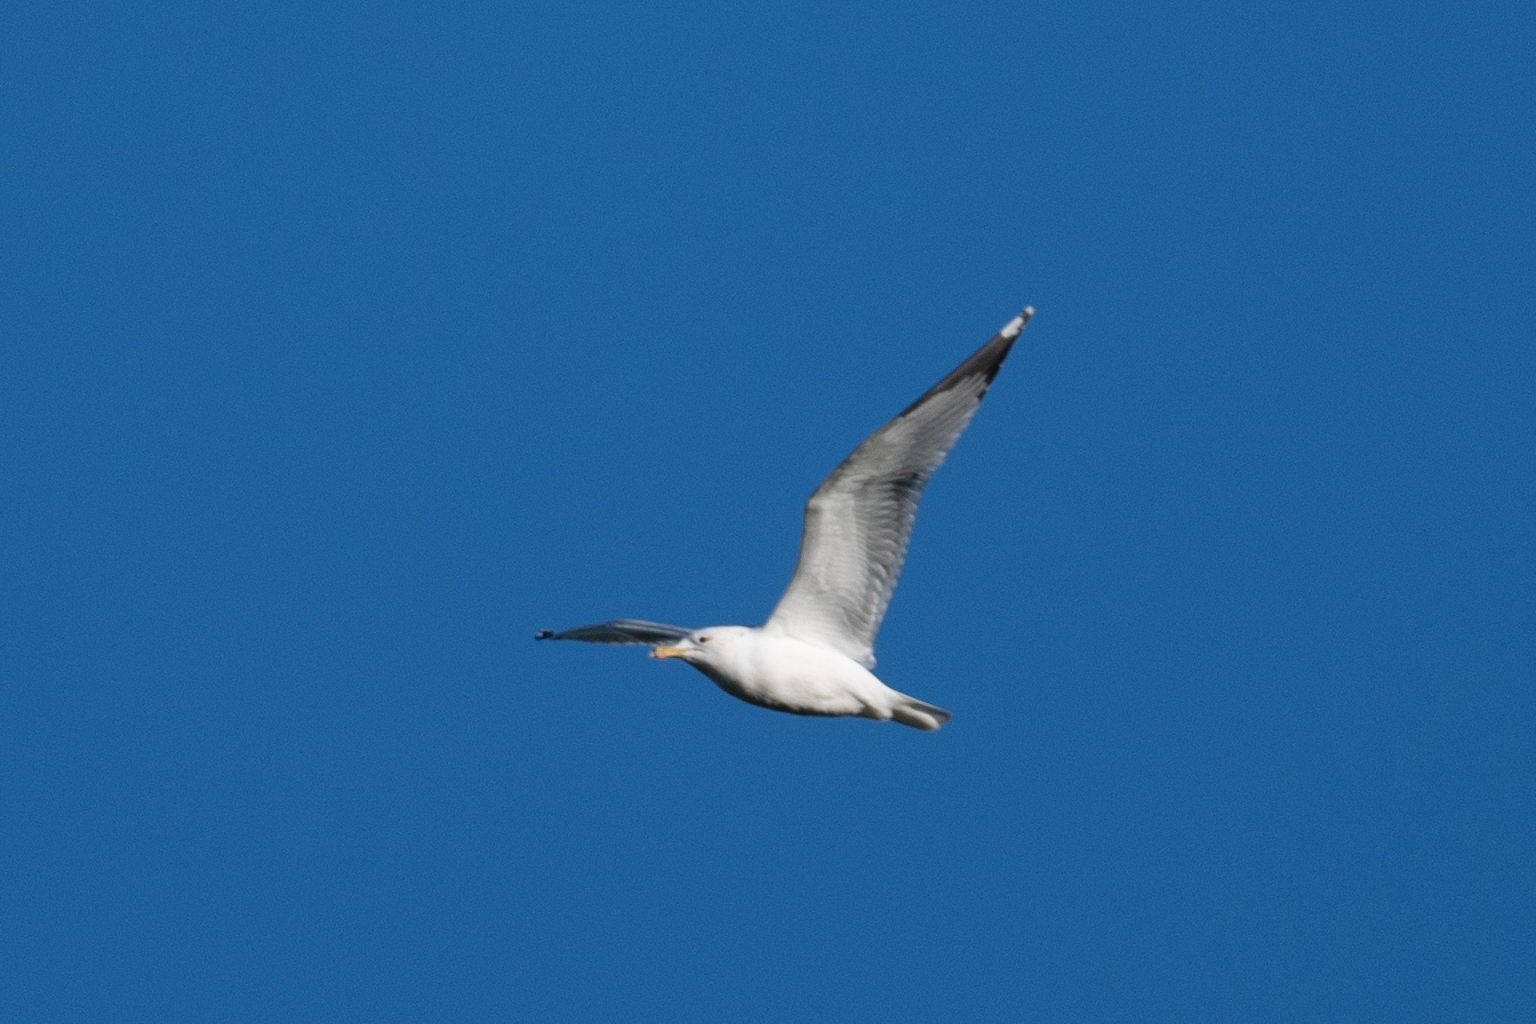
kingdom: Animalia
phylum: Chordata
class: Aves
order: Charadriiformes
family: Laridae
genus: Larus
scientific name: Larus californicus
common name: California gull
